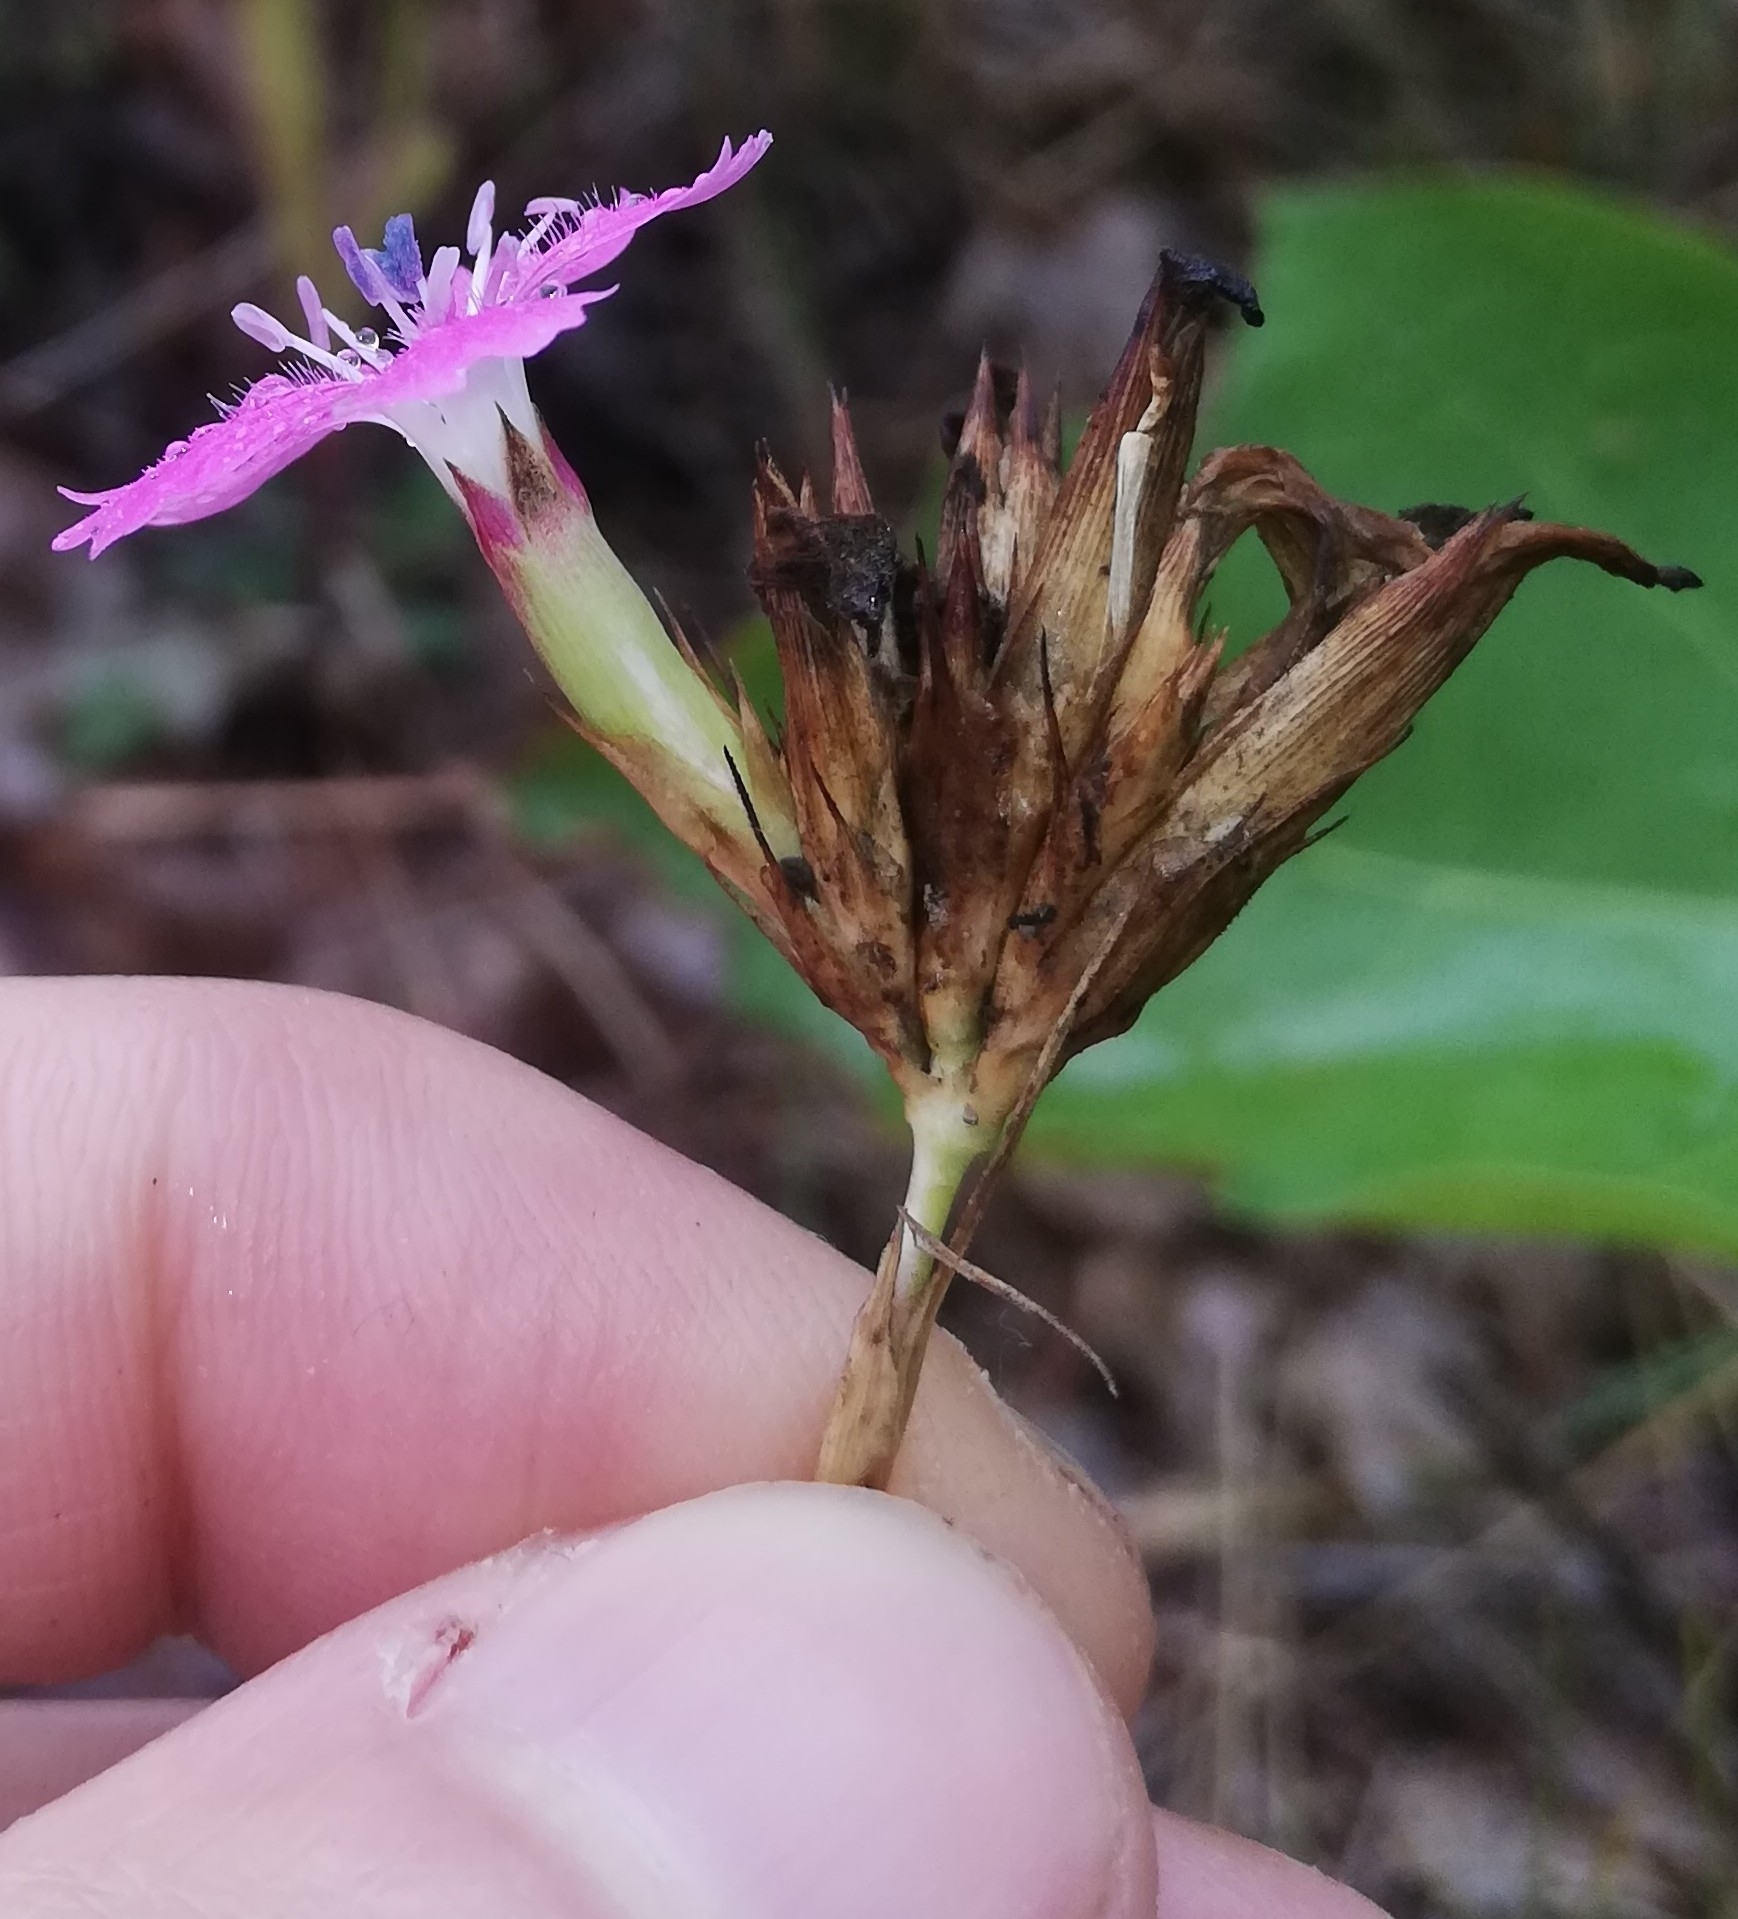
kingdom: Plantae
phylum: Tracheophyta
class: Magnoliopsida
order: Caryophyllales
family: Caryophyllaceae
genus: Dianthus
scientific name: Dianthus carthusianorum
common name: Carthusian pink
